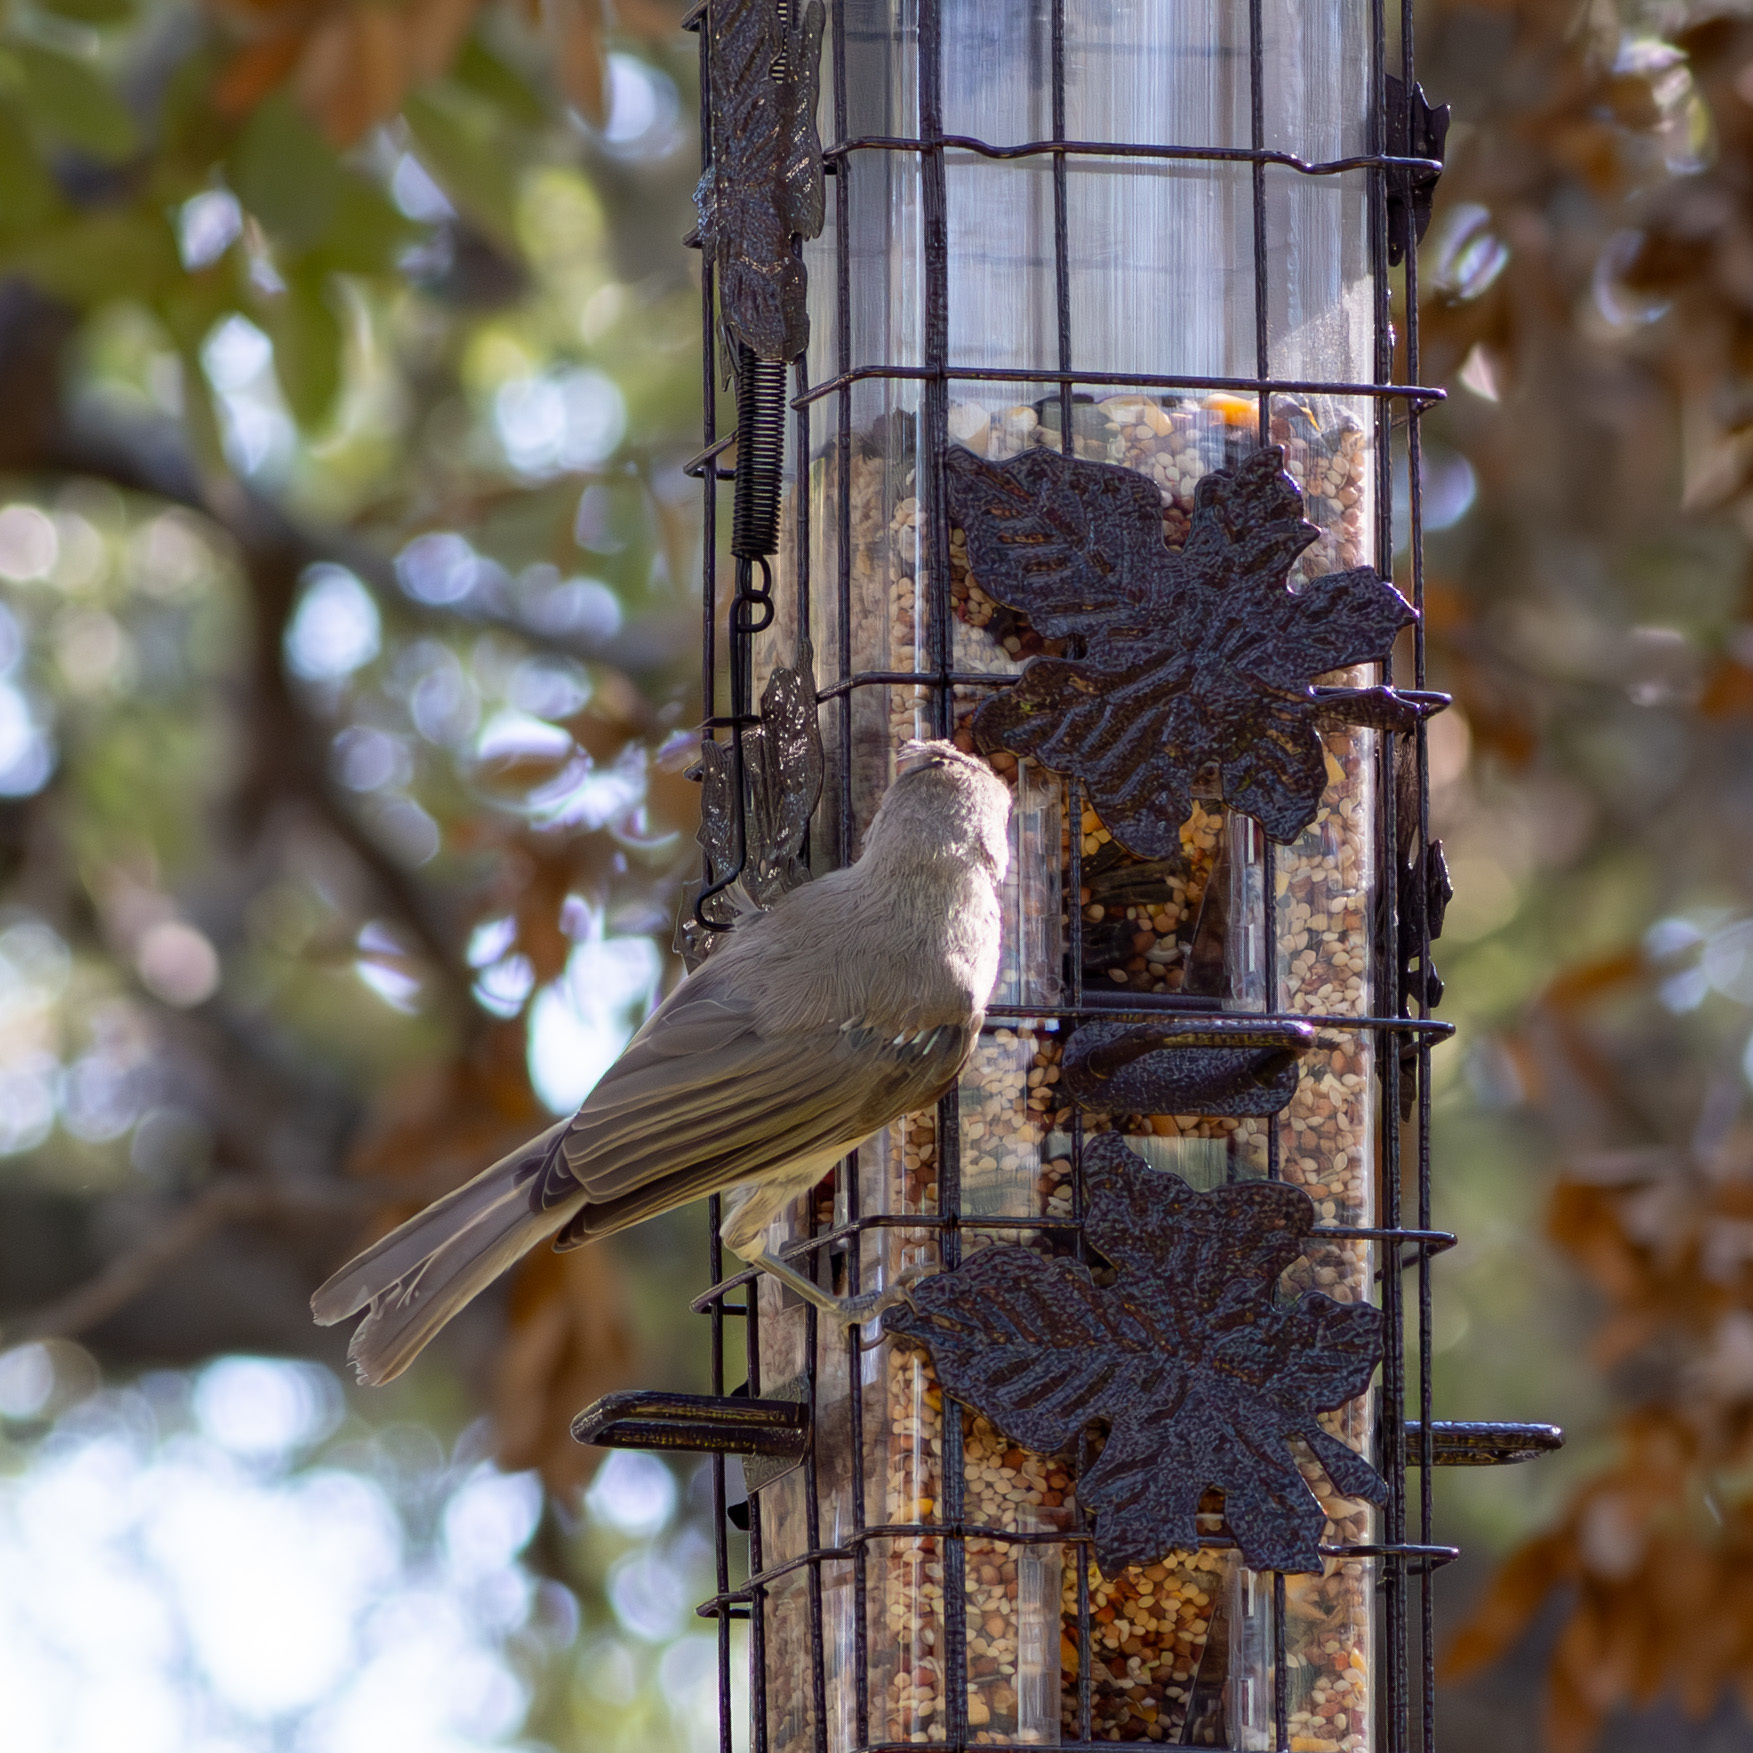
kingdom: Animalia
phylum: Chordata
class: Aves
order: Passeriformes
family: Paridae
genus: Baeolophus
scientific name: Baeolophus
